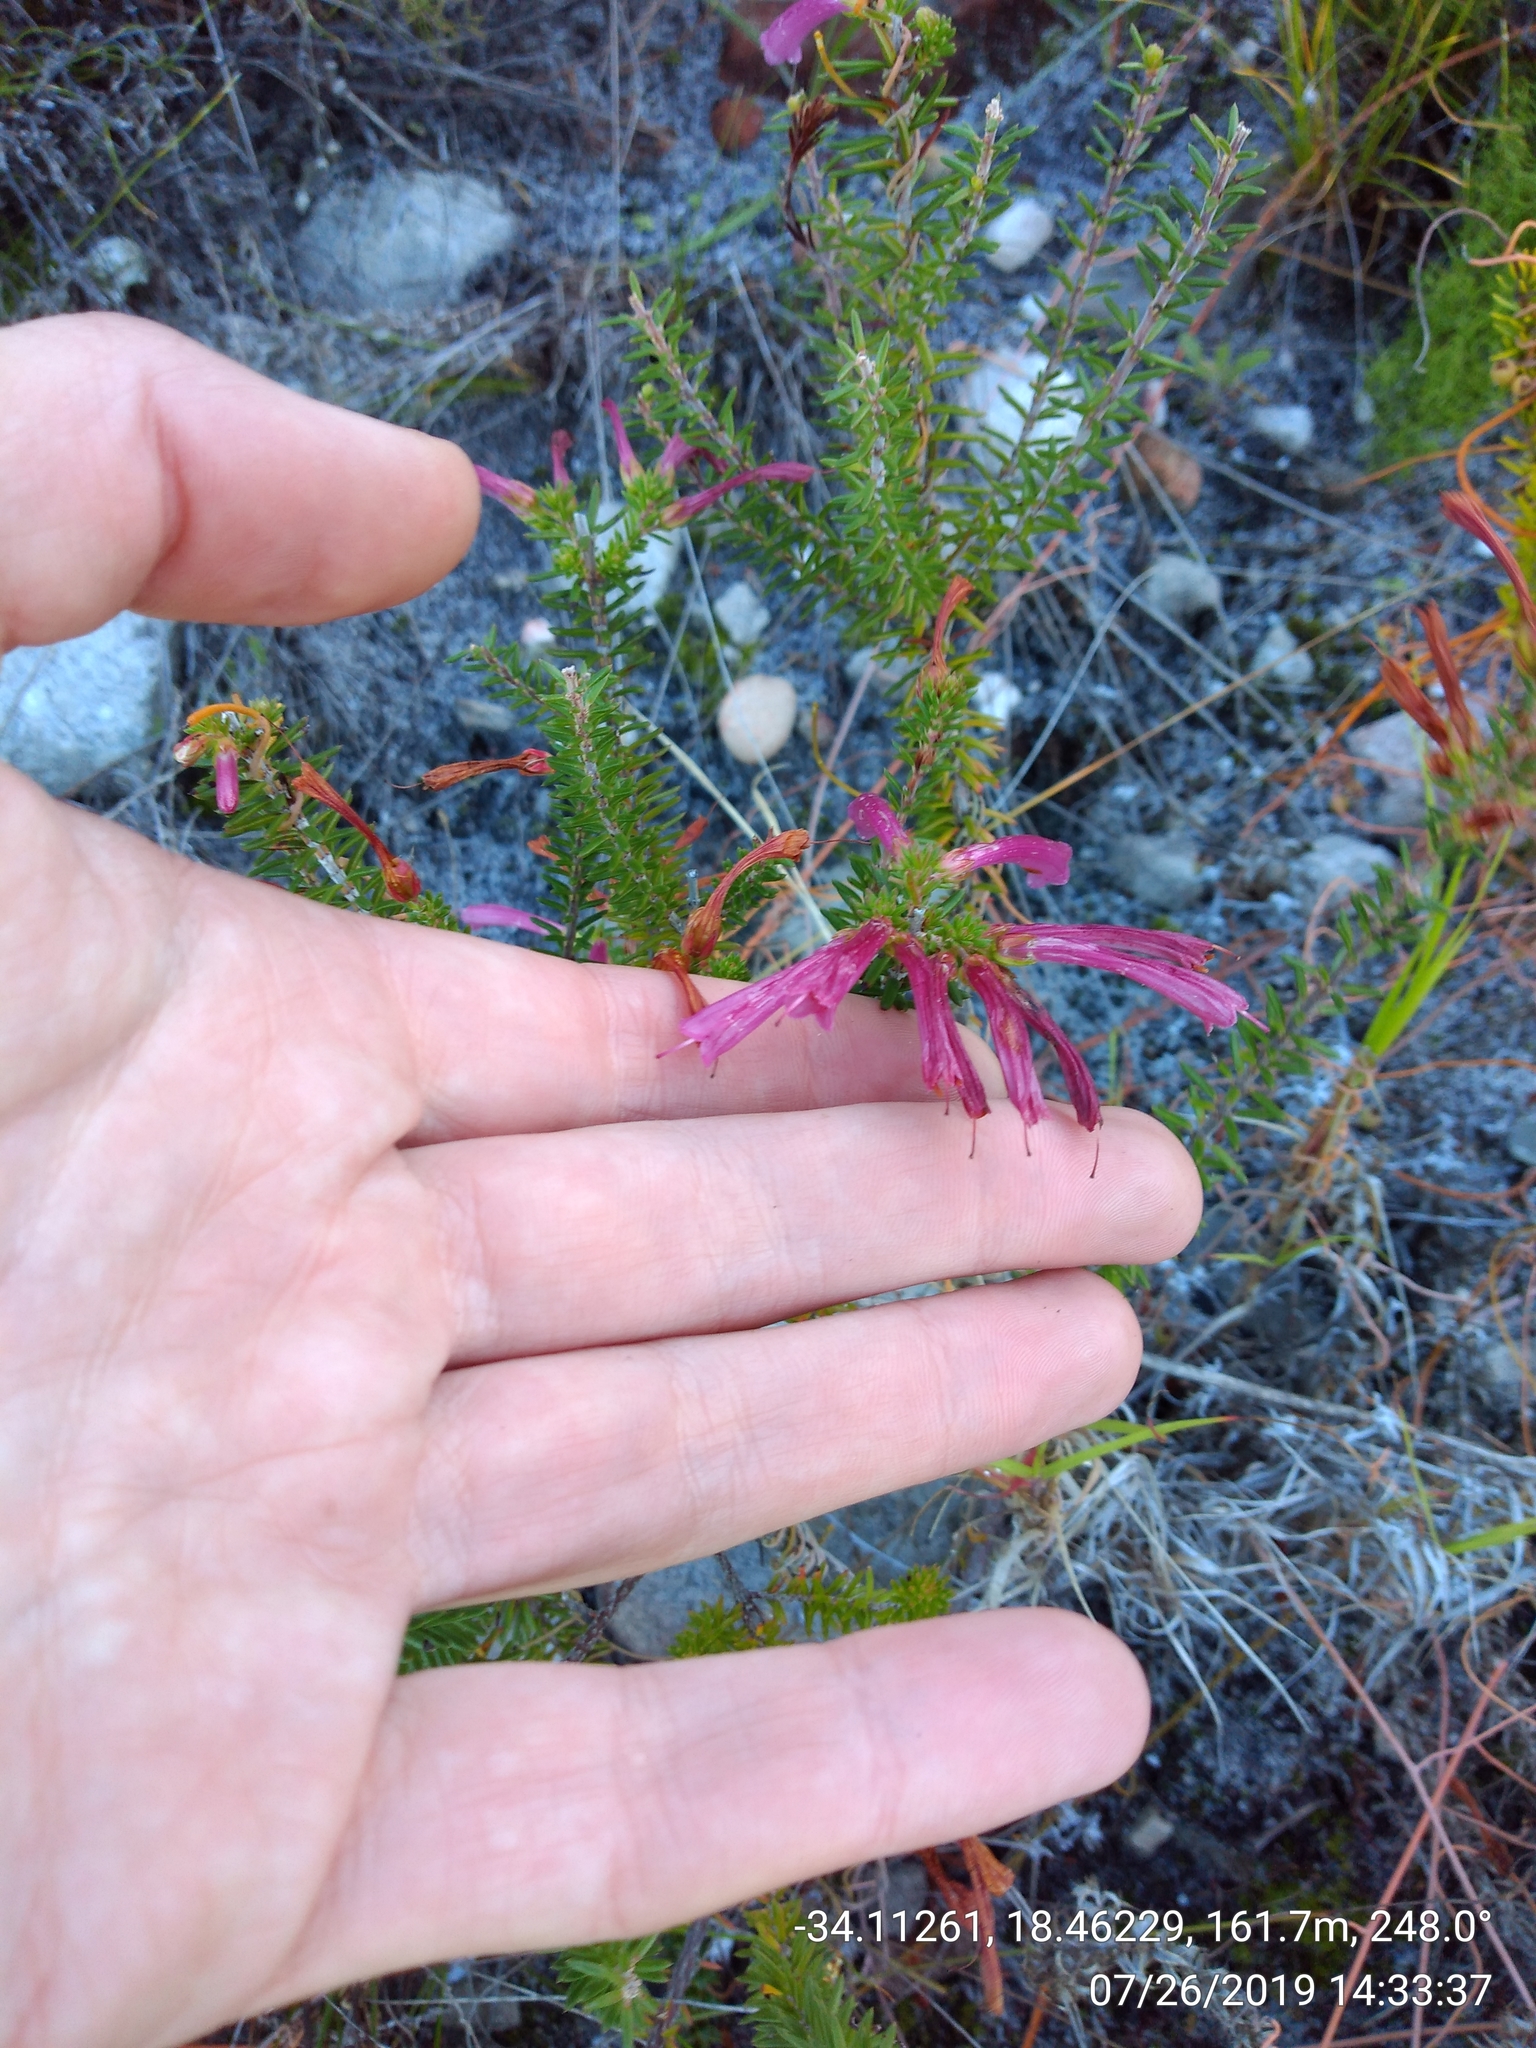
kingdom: Plantae
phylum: Tracheophyta
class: Magnoliopsida
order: Ericales
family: Ericaceae
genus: Erica
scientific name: Erica abietina
